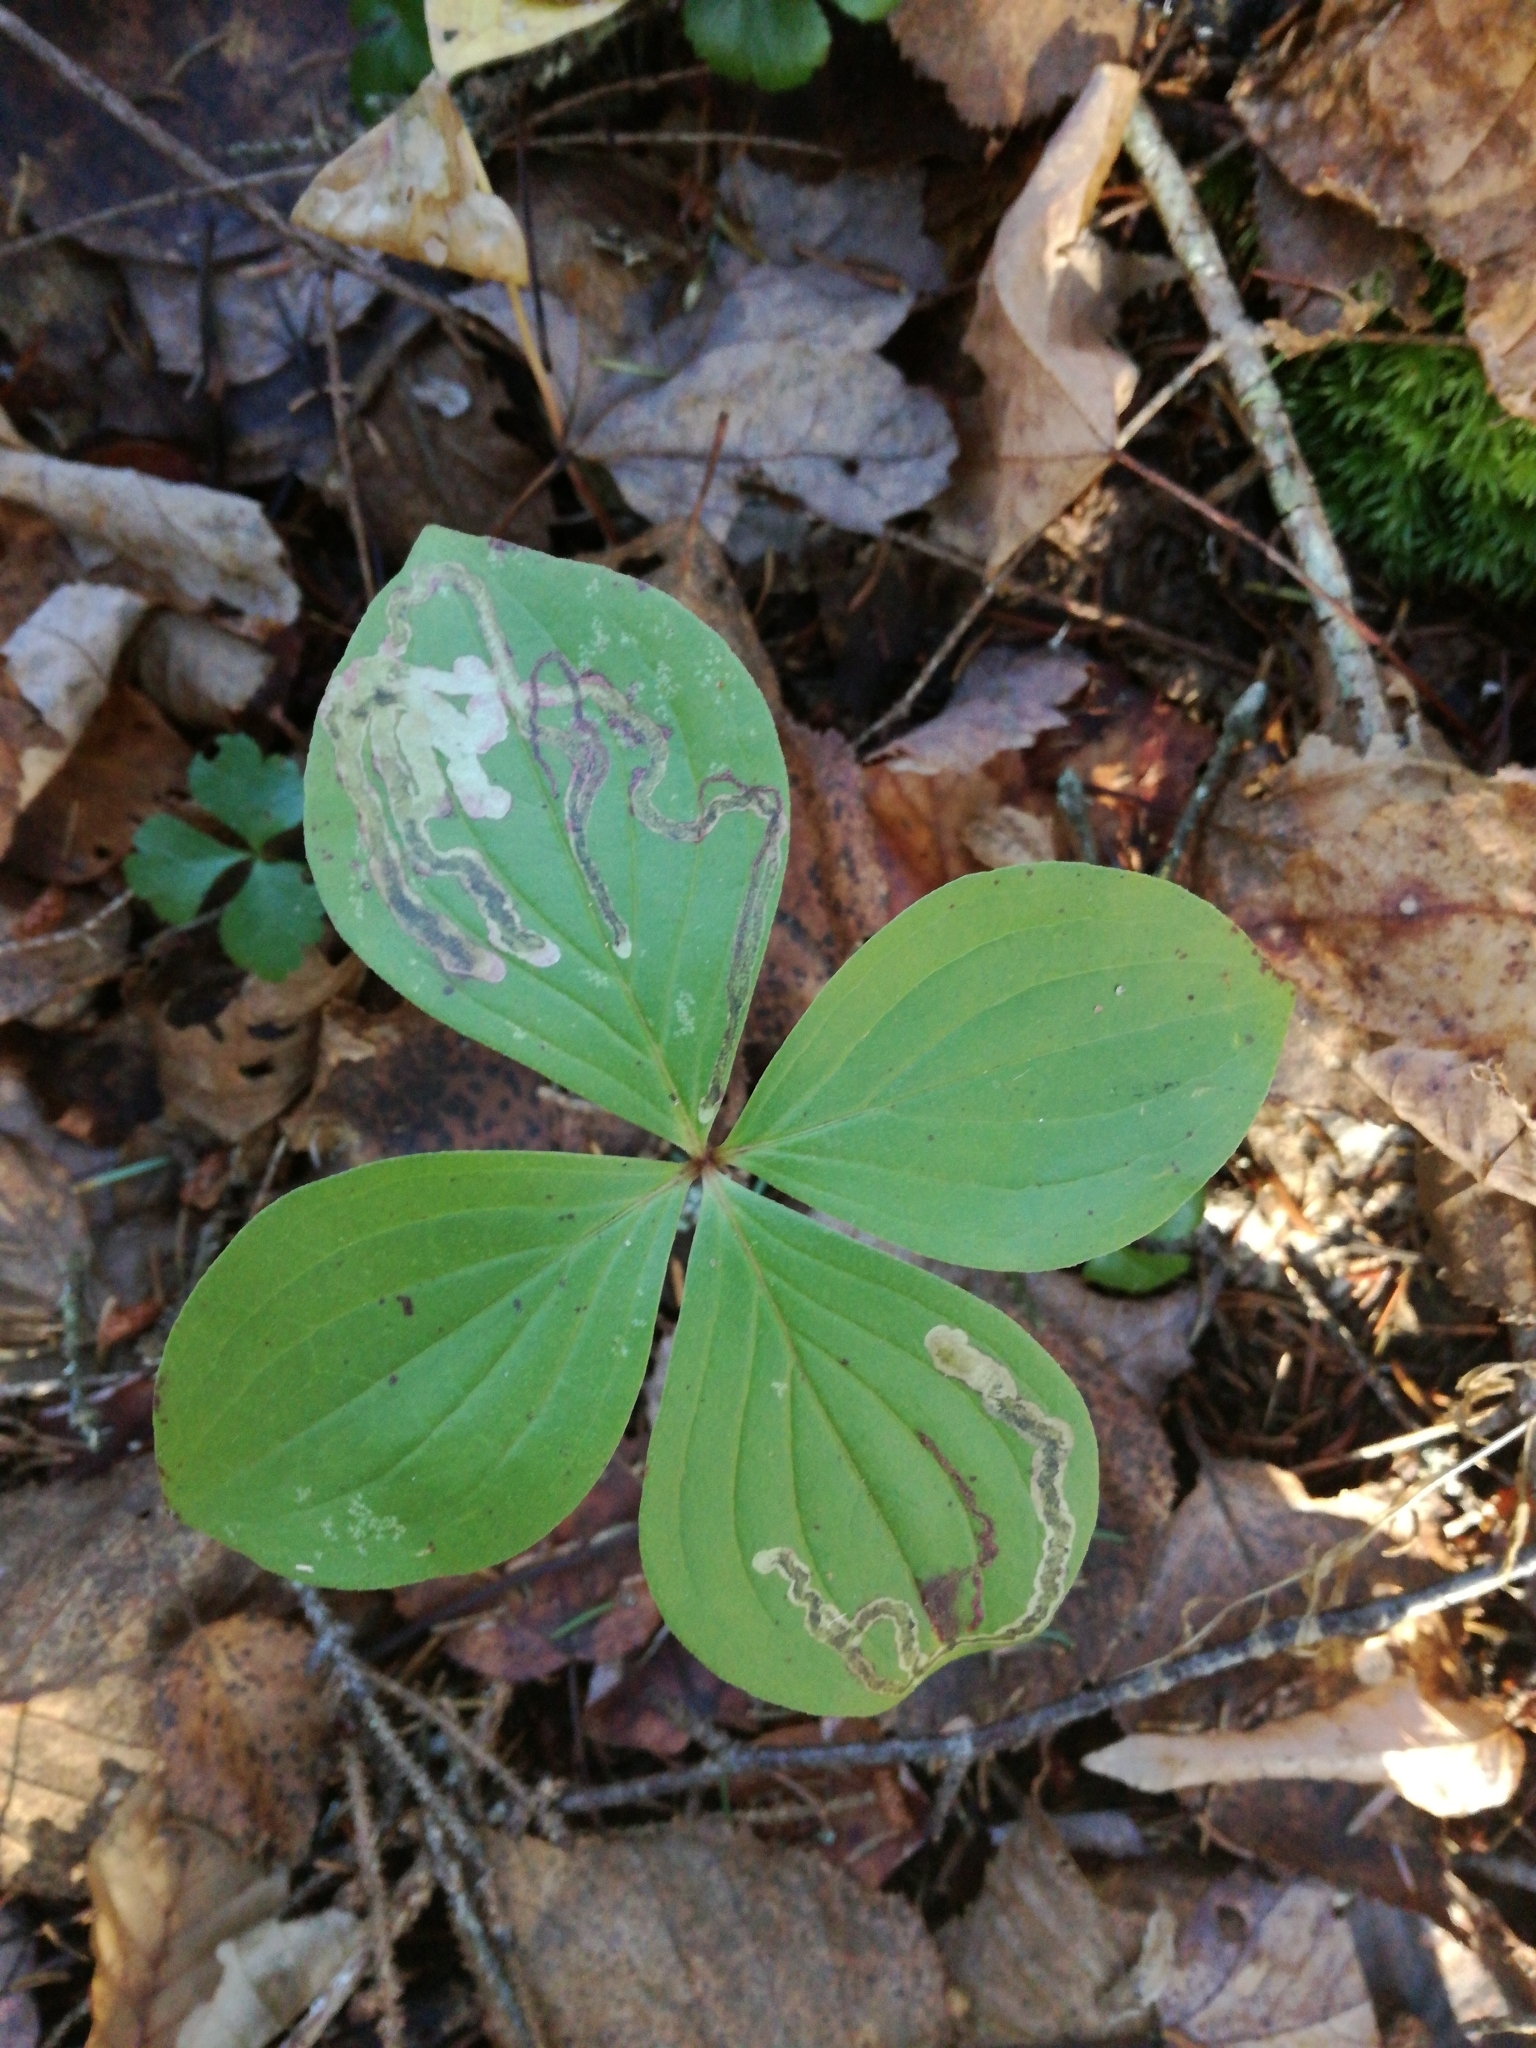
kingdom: Plantae
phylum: Tracheophyta
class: Magnoliopsida
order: Cornales
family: Cornaceae
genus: Cornus
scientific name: Cornus canadensis
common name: Creeping dogwood
